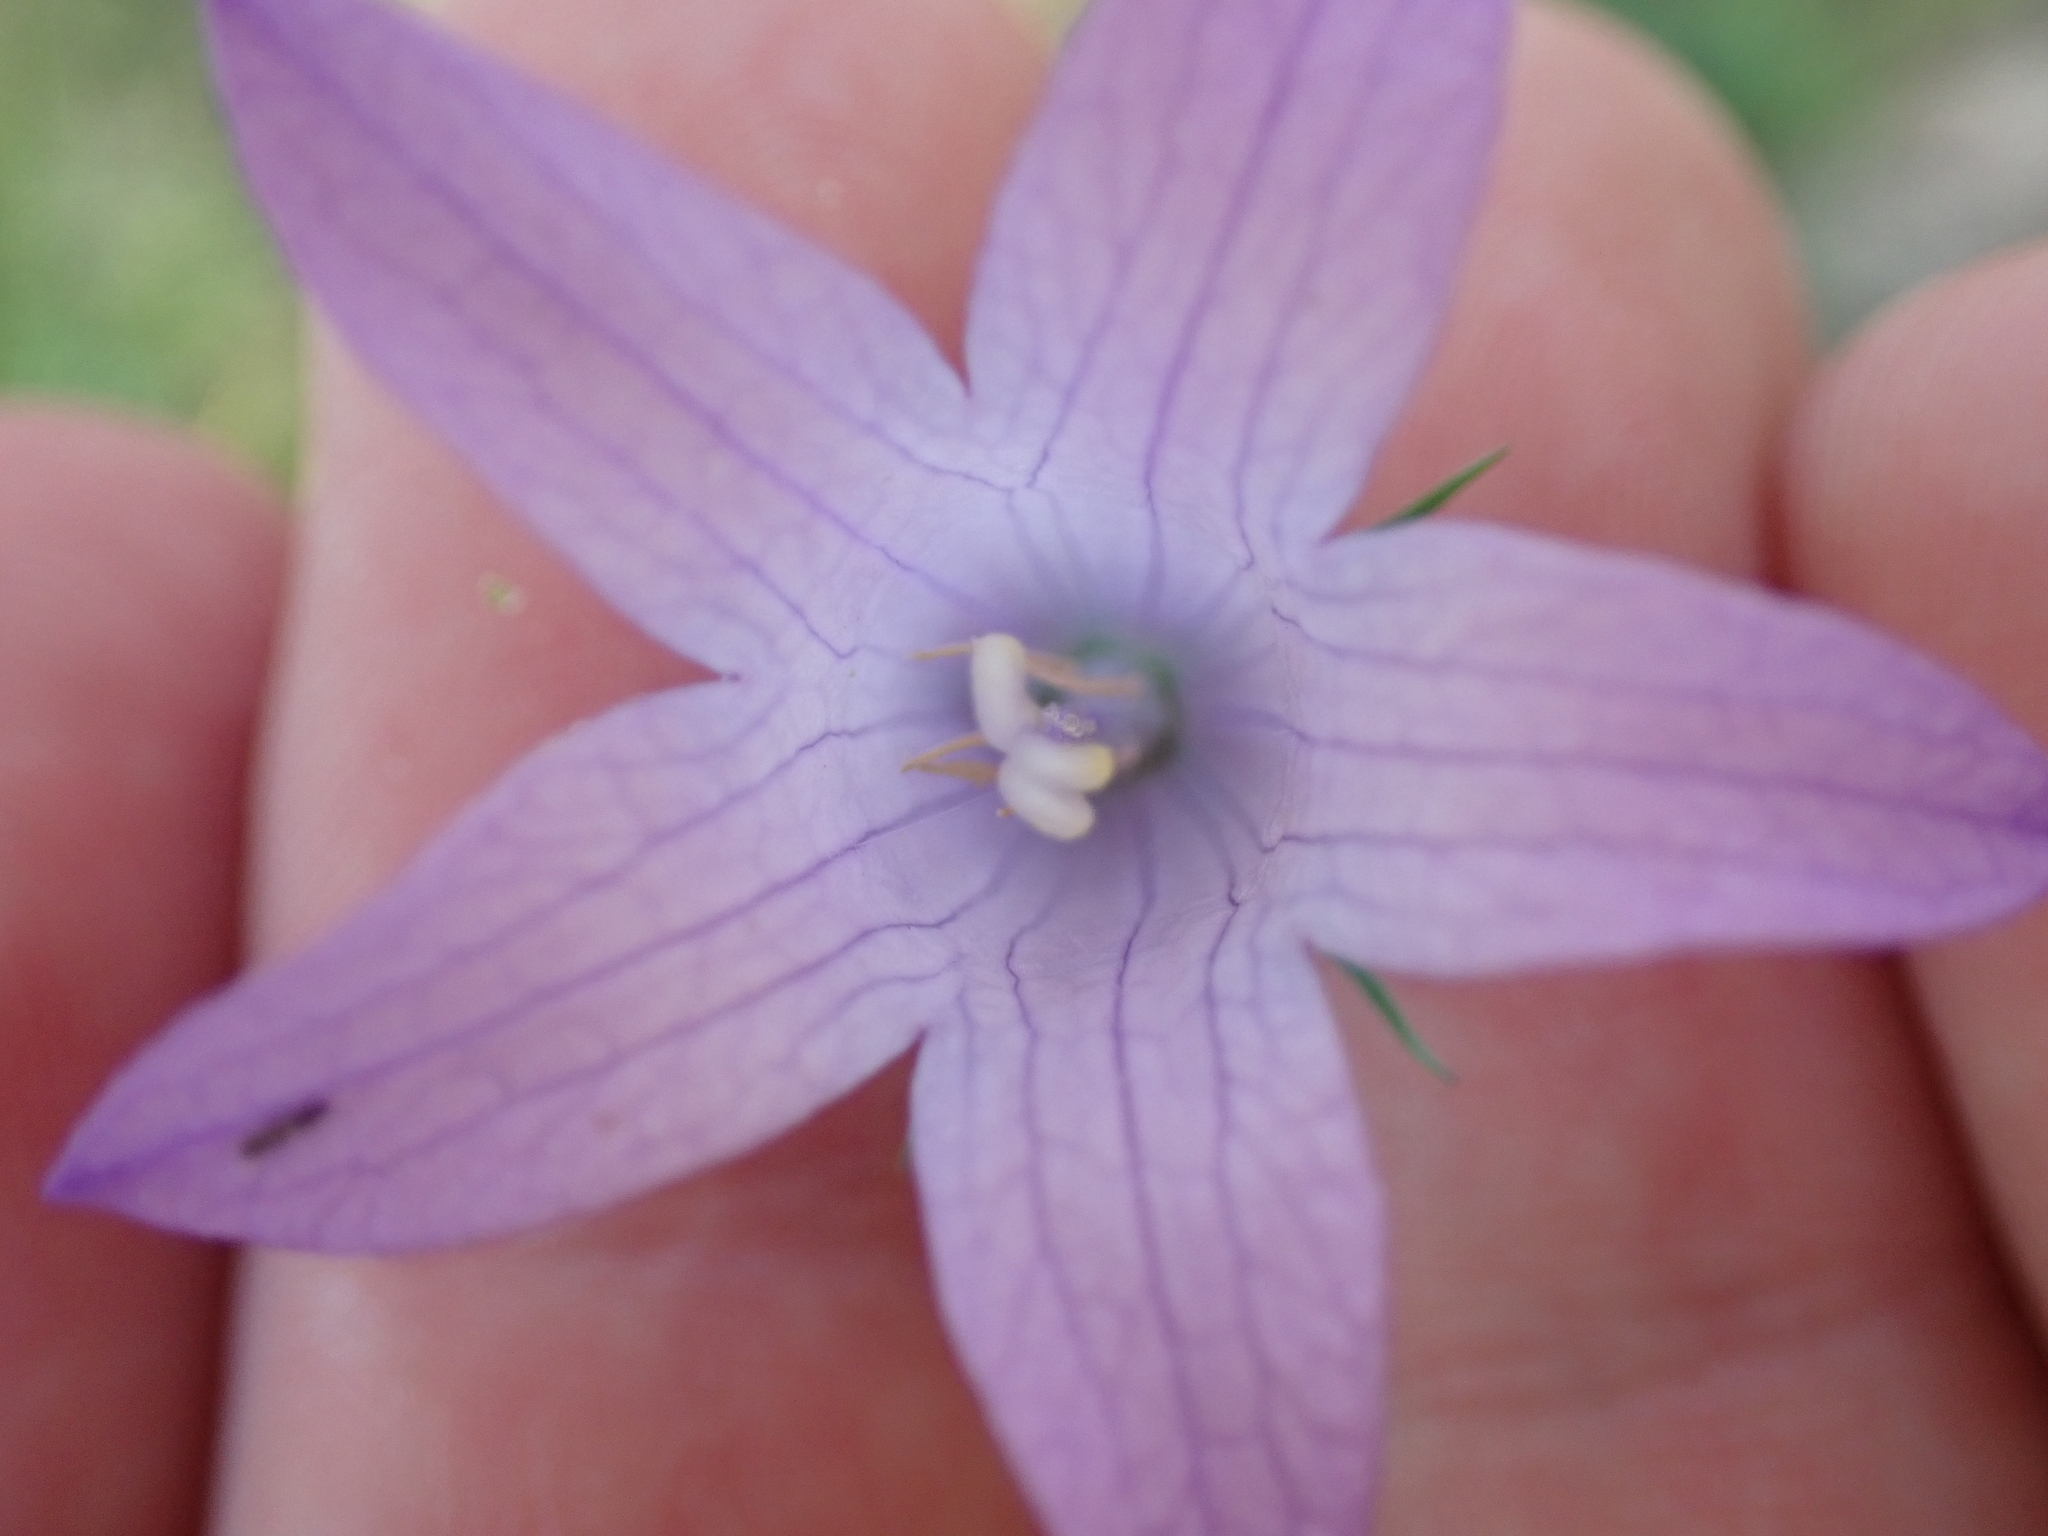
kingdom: Plantae
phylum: Tracheophyta
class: Magnoliopsida
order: Asterales
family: Campanulaceae
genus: Campanula
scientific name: Campanula rapunculus
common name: Rampion bellflower
